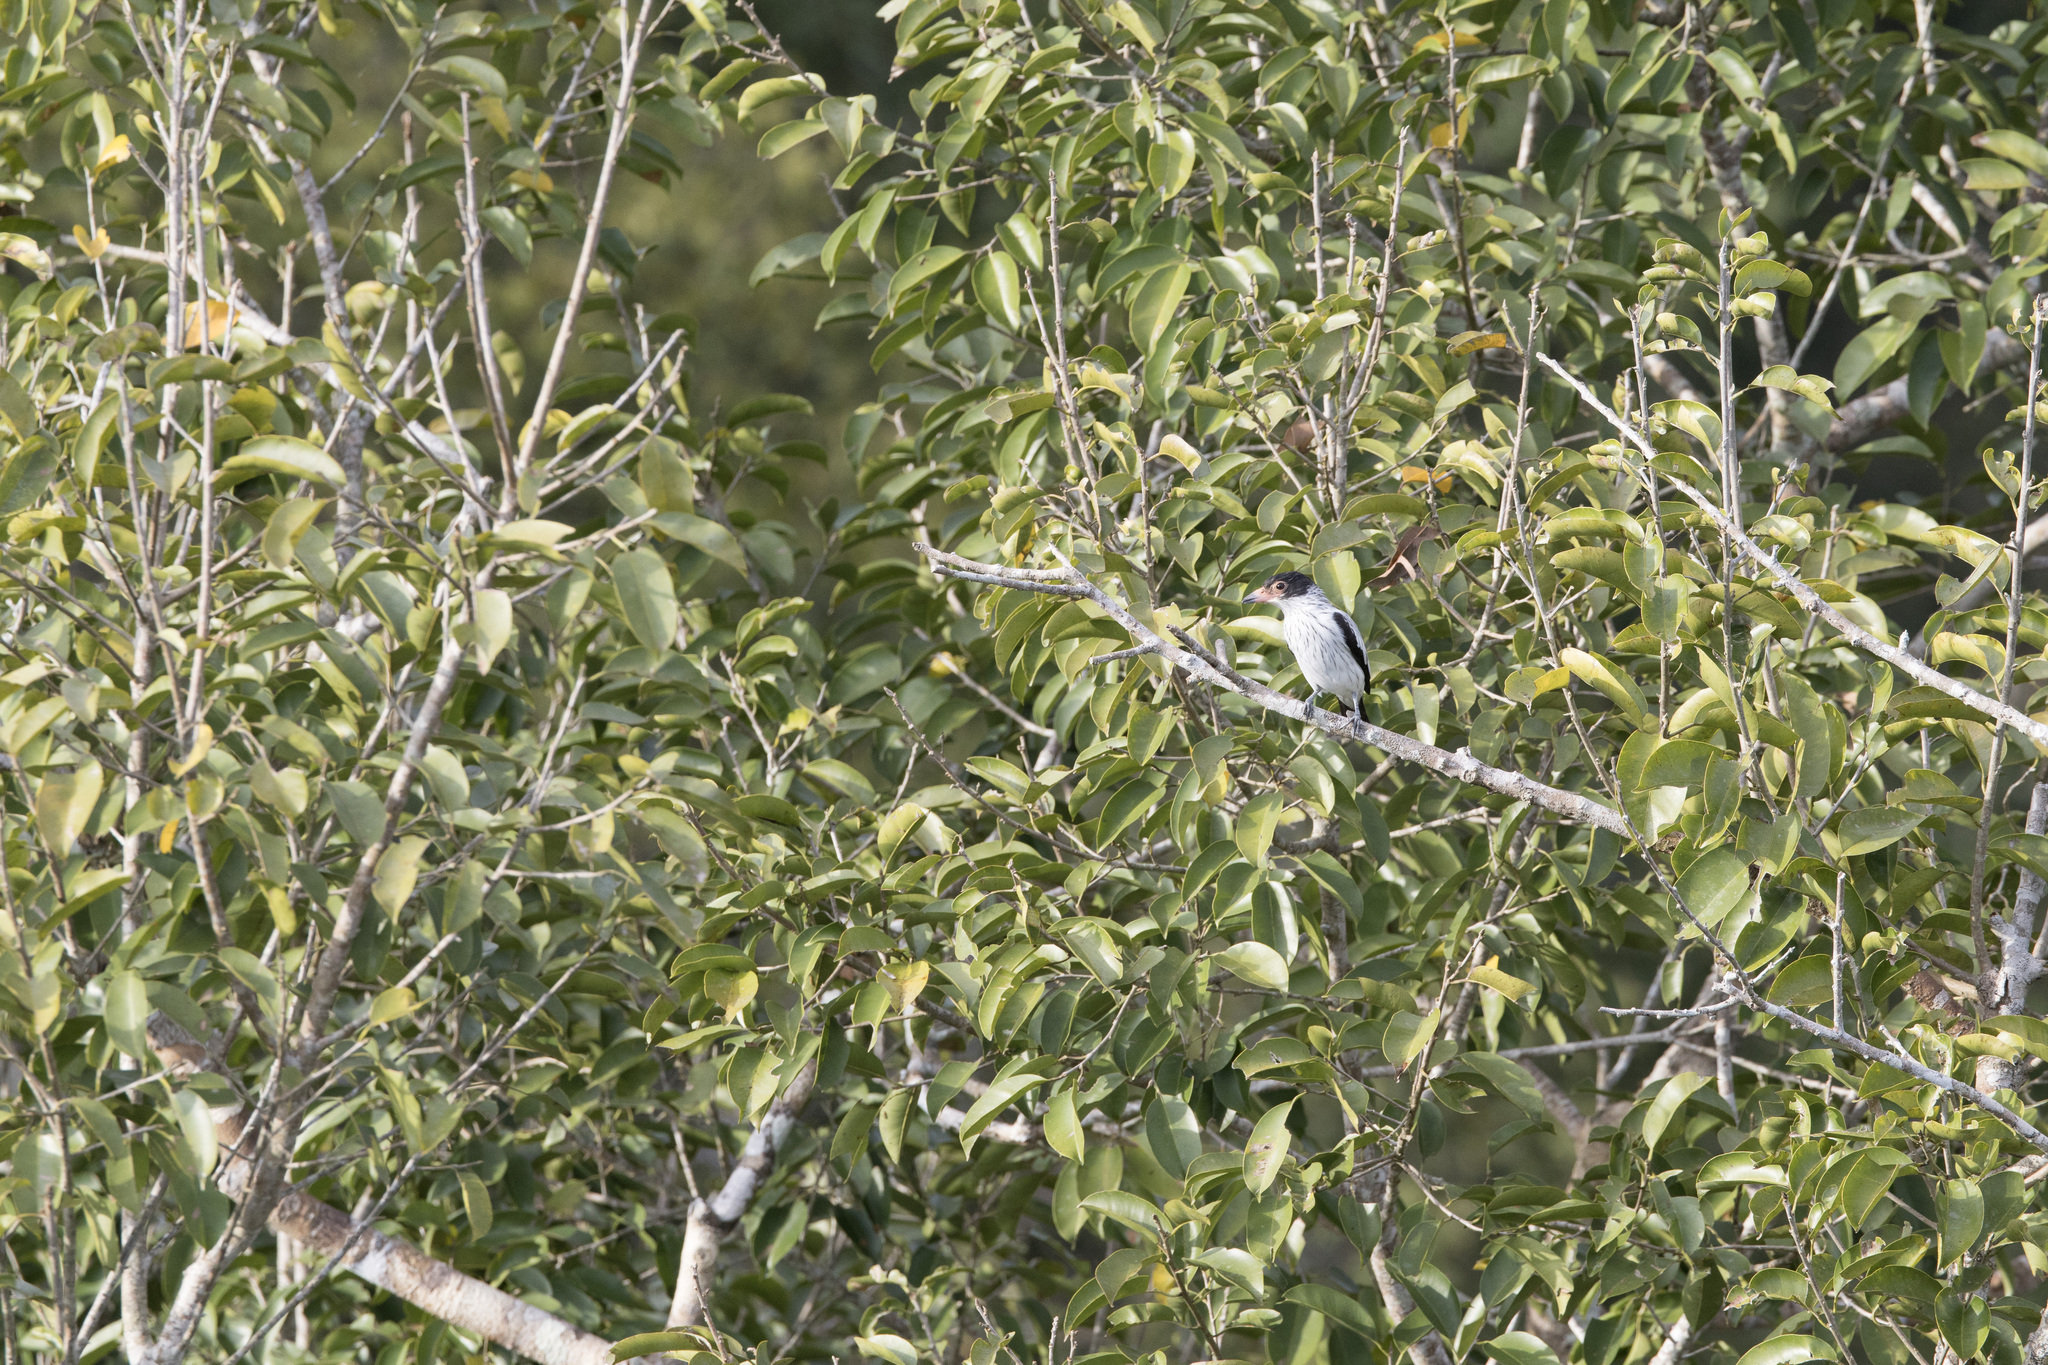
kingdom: Animalia
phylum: Chordata
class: Aves
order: Passeriformes
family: Cotingidae
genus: Tityra
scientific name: Tityra cayana
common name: Black-tailed tityra
